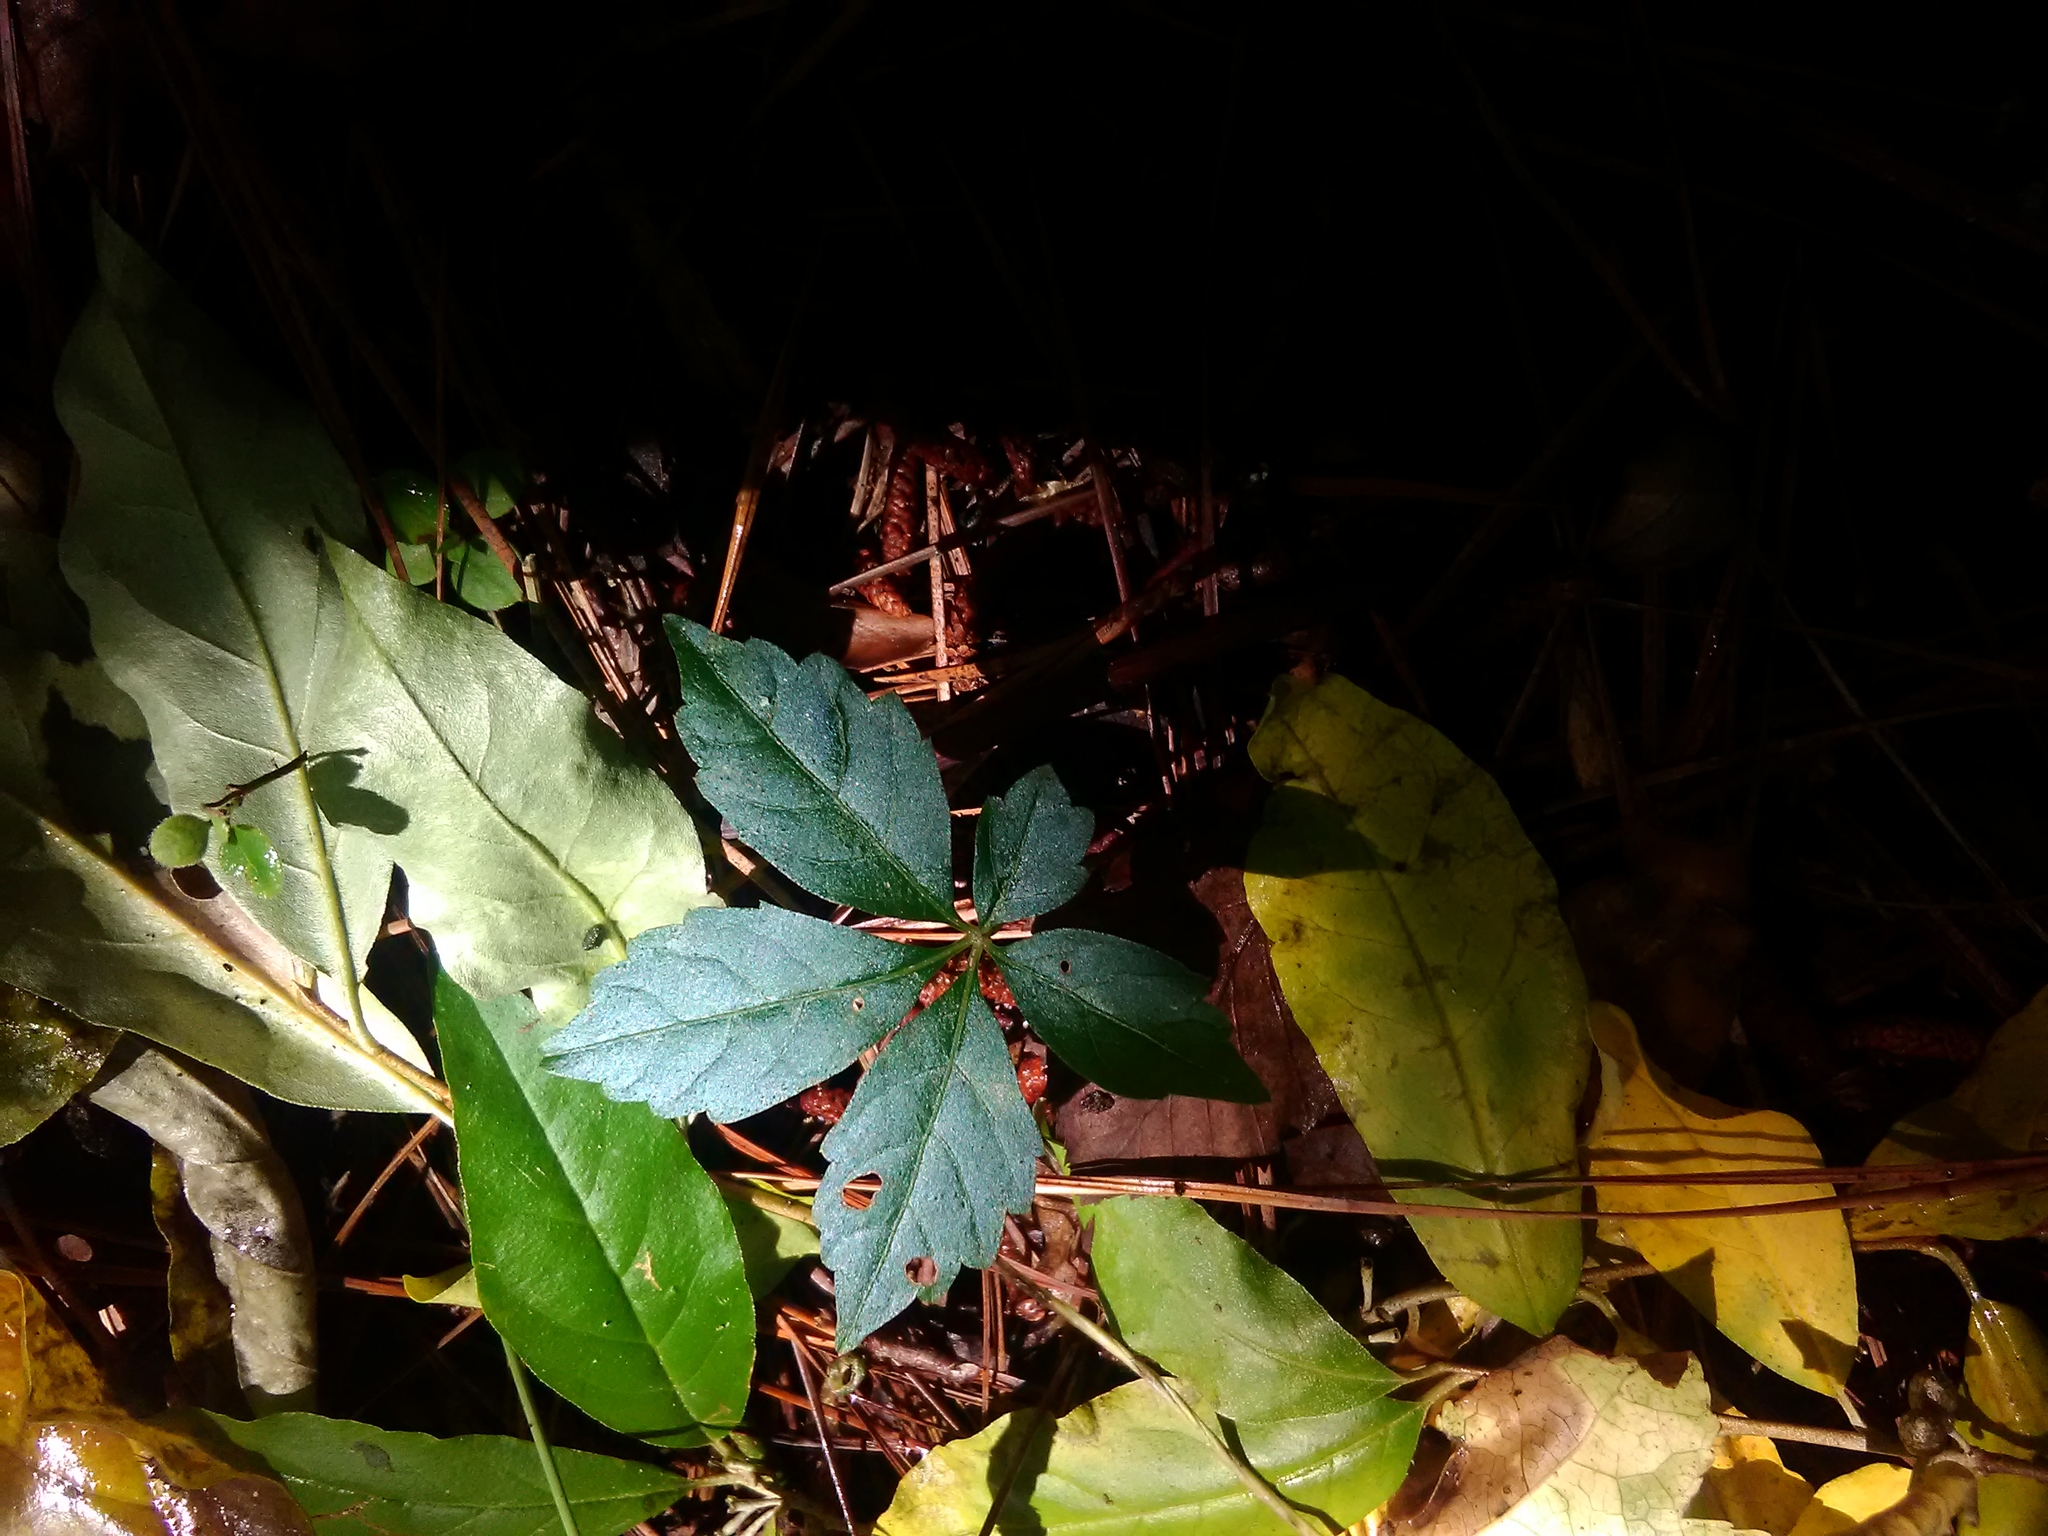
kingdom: Plantae
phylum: Tracheophyta
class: Magnoliopsida
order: Vitales
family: Vitaceae
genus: Parthenocissus
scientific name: Parthenocissus quinquefolia
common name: Virginia-creeper
